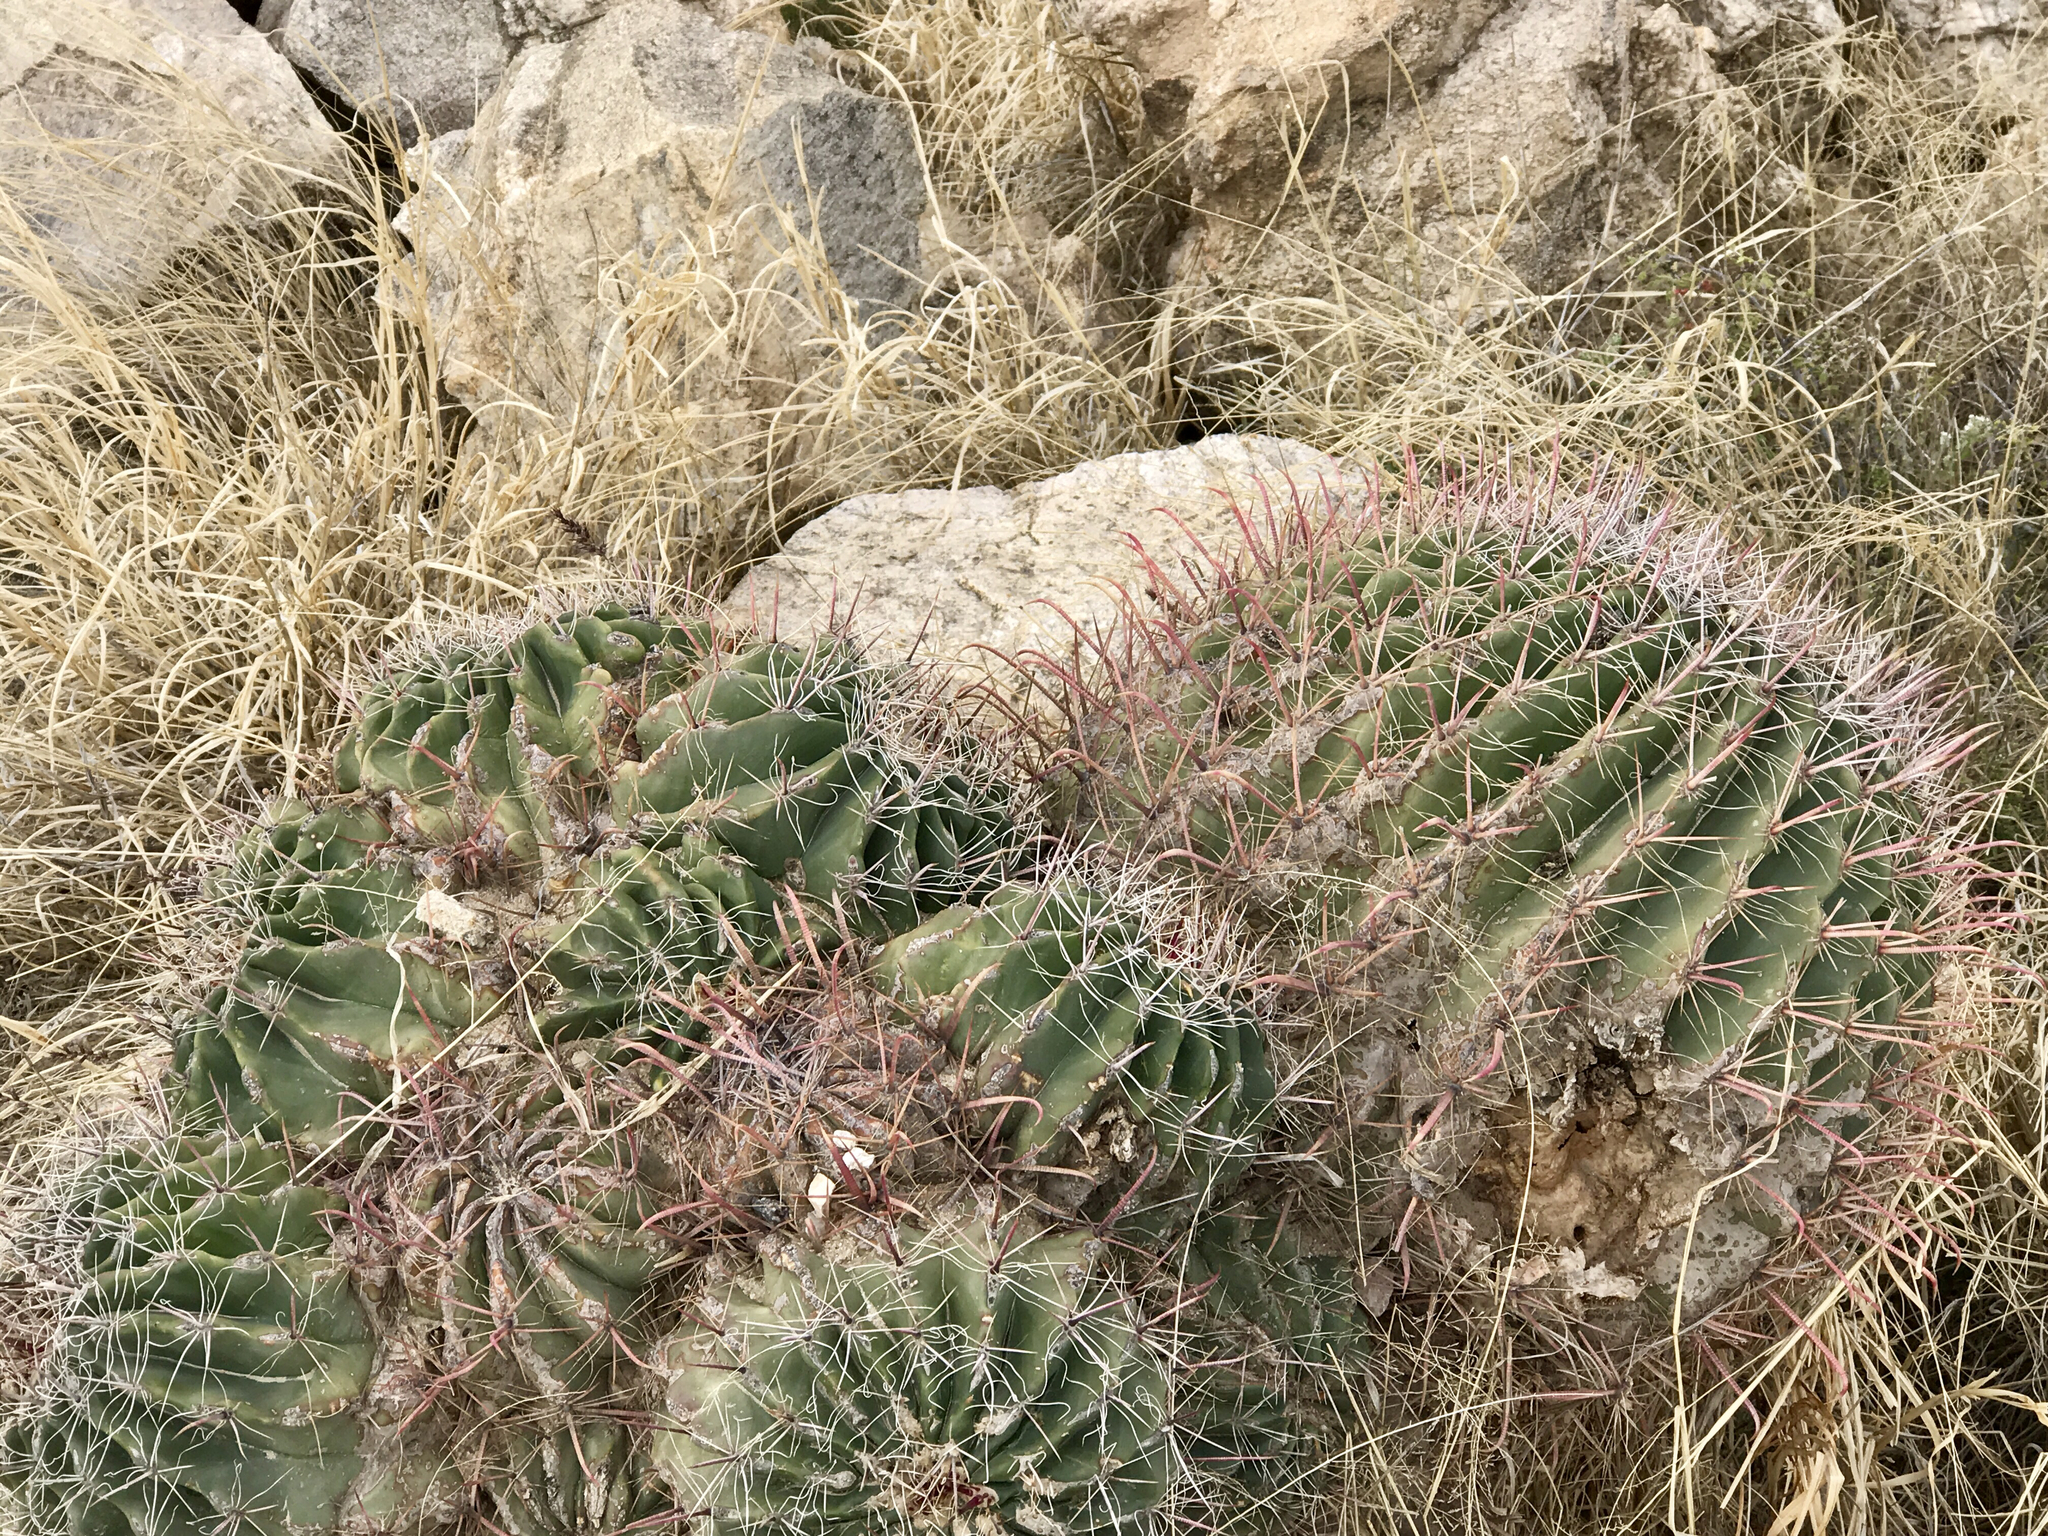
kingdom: Plantae
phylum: Tracheophyta
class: Magnoliopsida
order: Caryophyllales
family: Cactaceae
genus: Ferocactus
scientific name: Ferocactus wislizeni
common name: Candy barrel cactus
